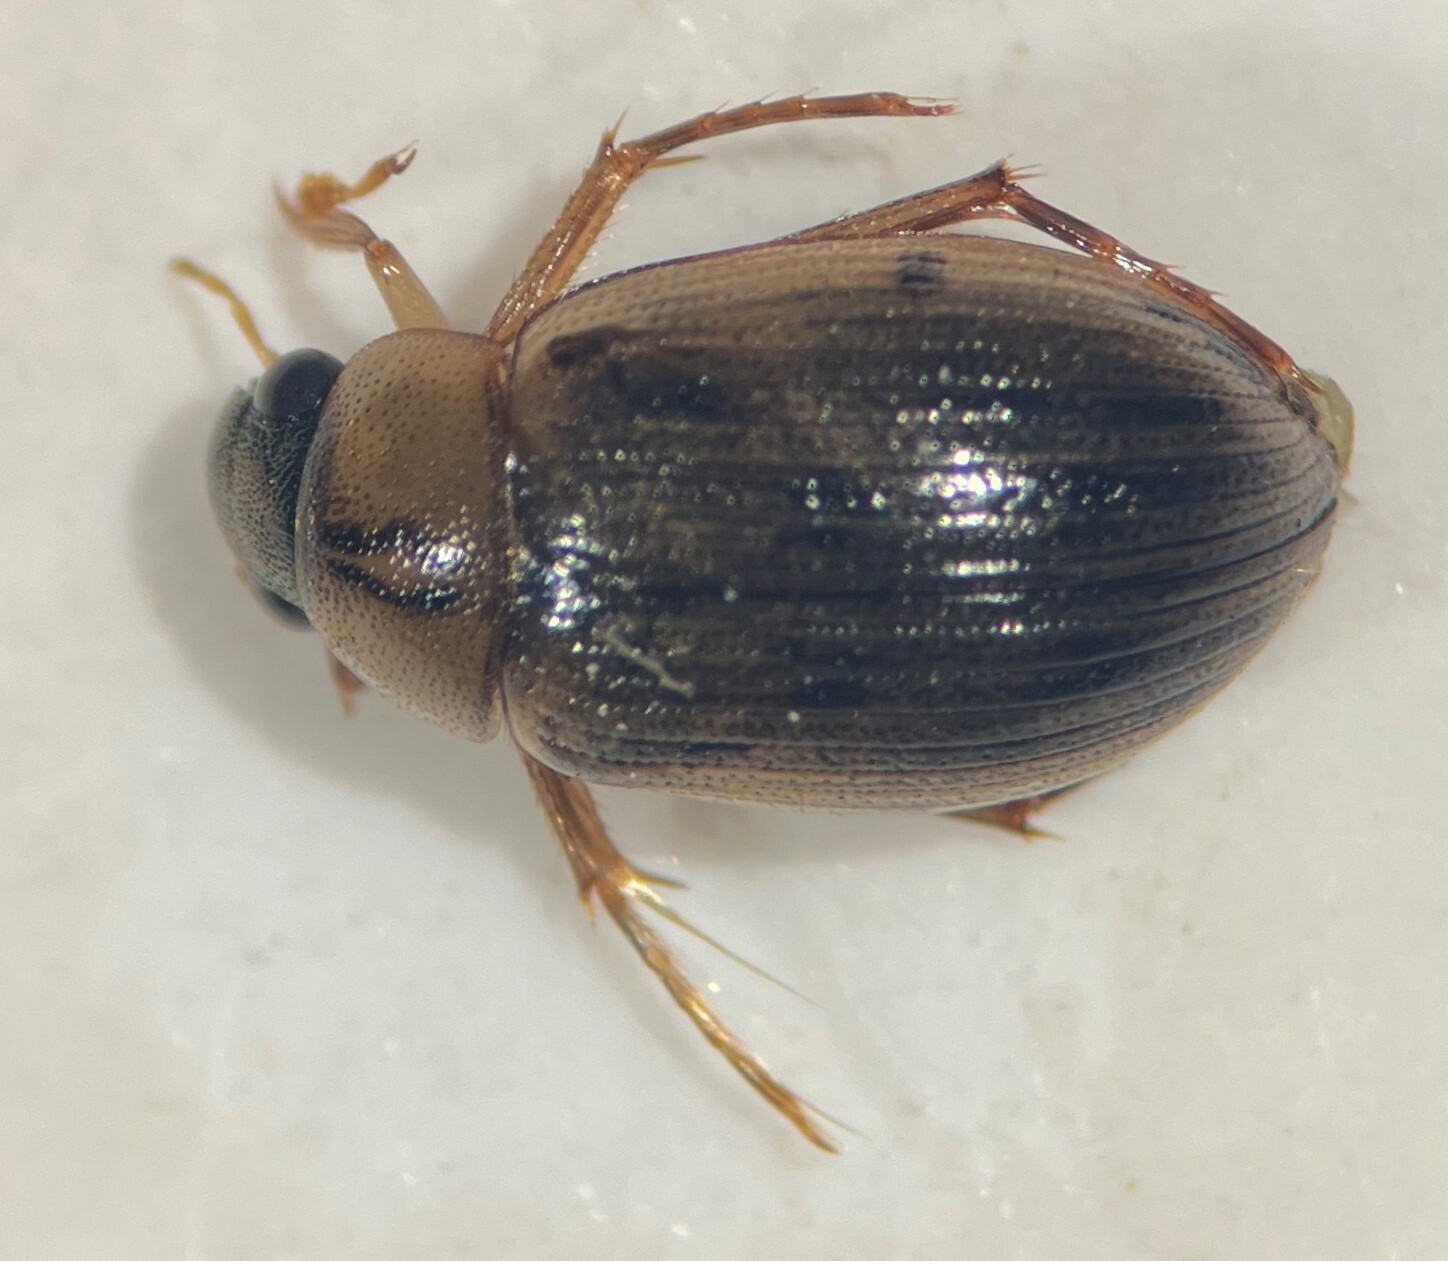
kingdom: Animalia
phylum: Arthropoda
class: Insecta
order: Coleoptera
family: Hydrophilidae
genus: Berosus
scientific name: Berosus oregonensis
